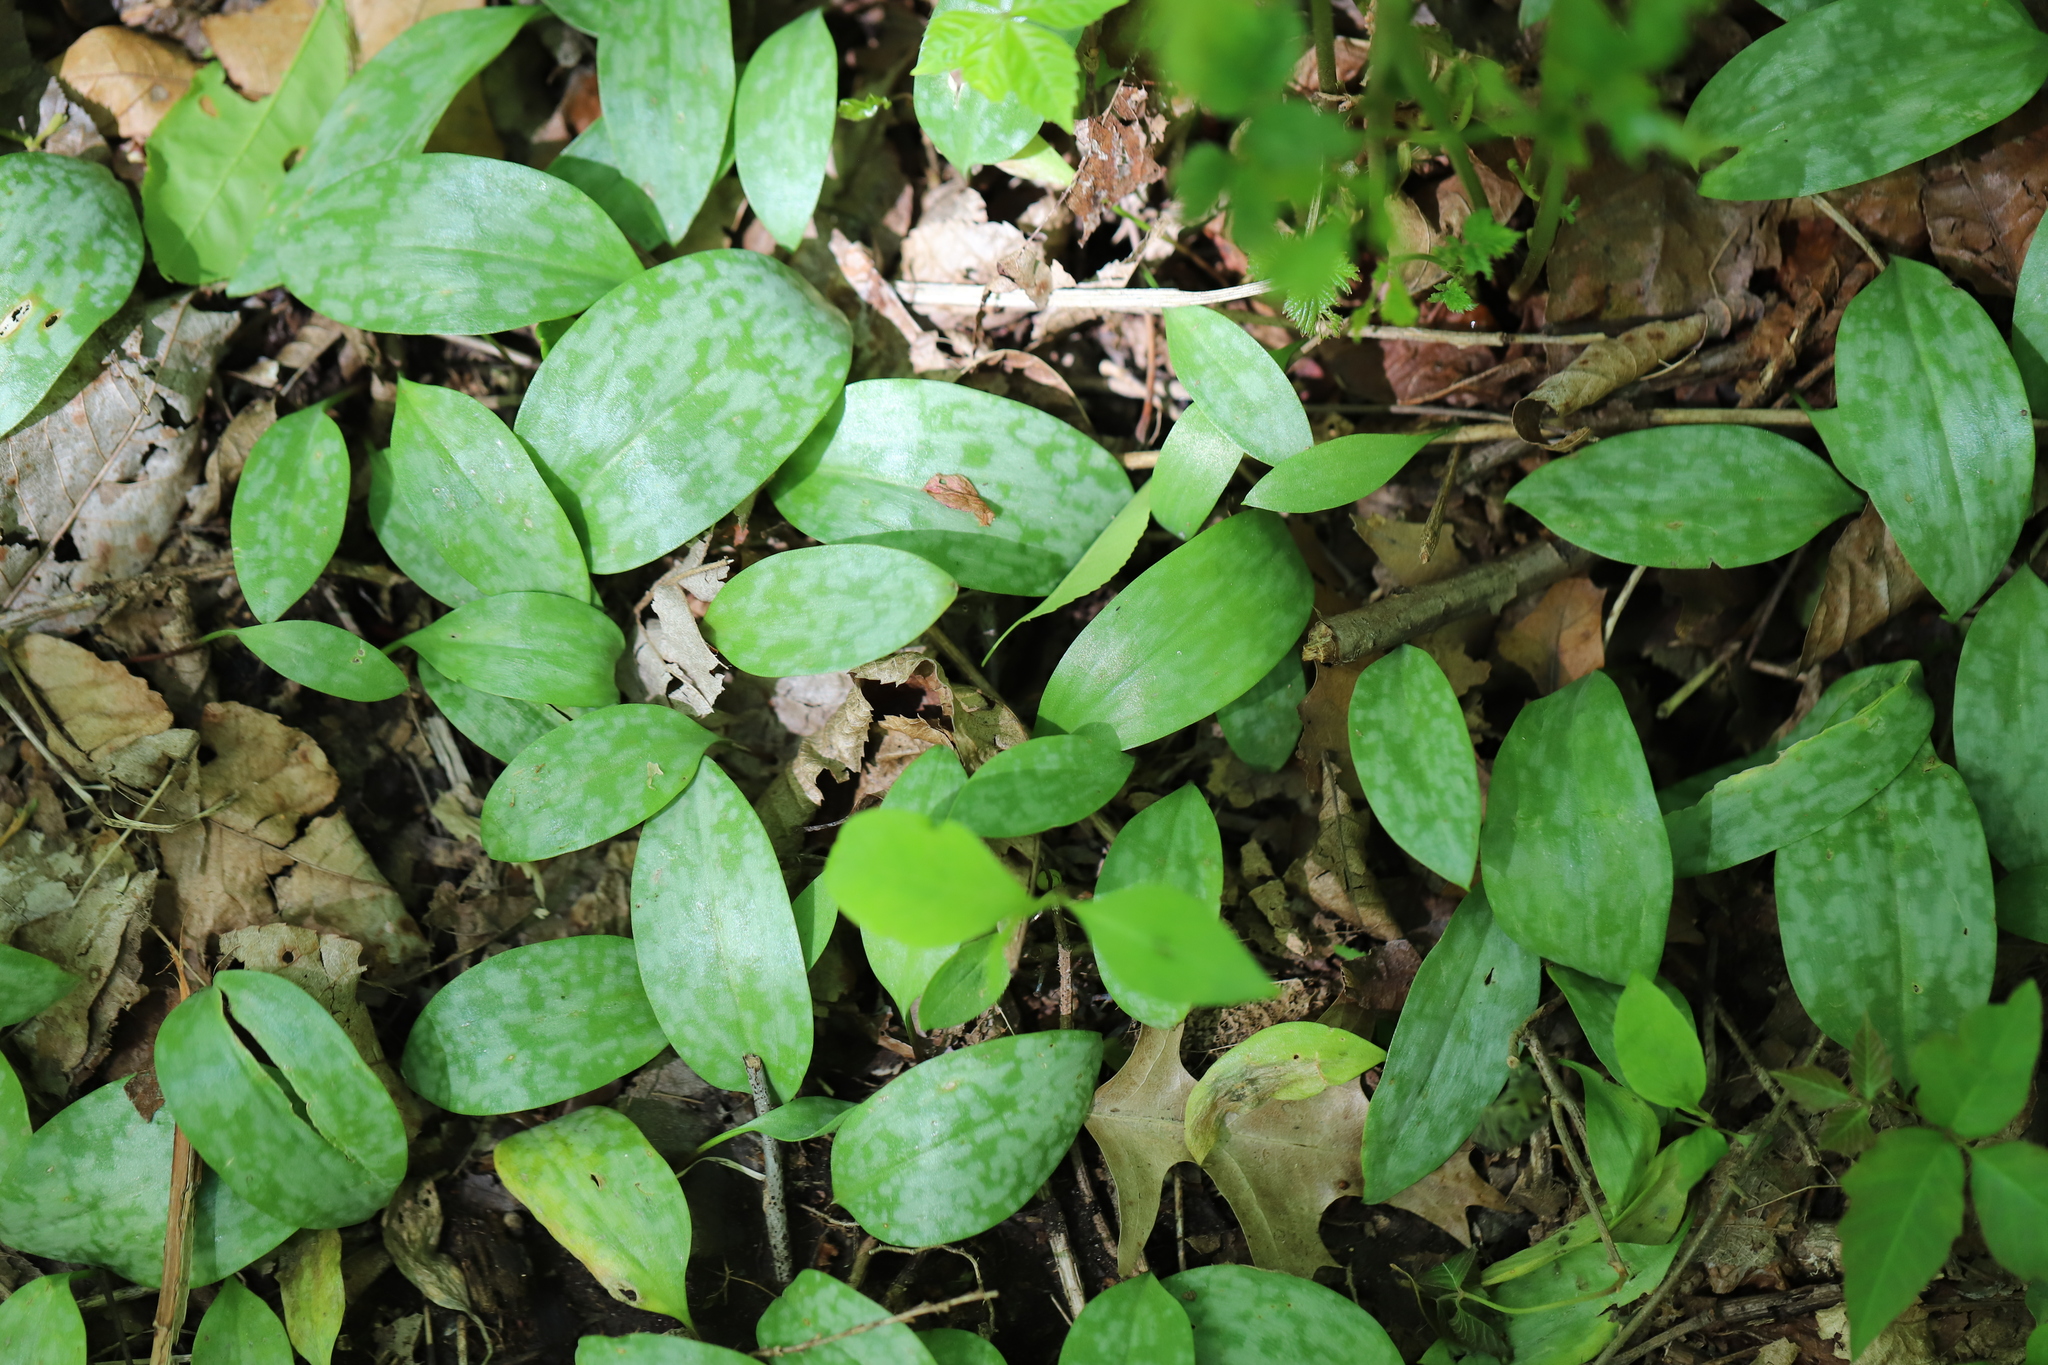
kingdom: Plantae
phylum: Tracheophyta
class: Liliopsida
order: Liliales
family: Liliaceae
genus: Erythronium
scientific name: Erythronium americanum
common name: Yellow adder's-tongue
